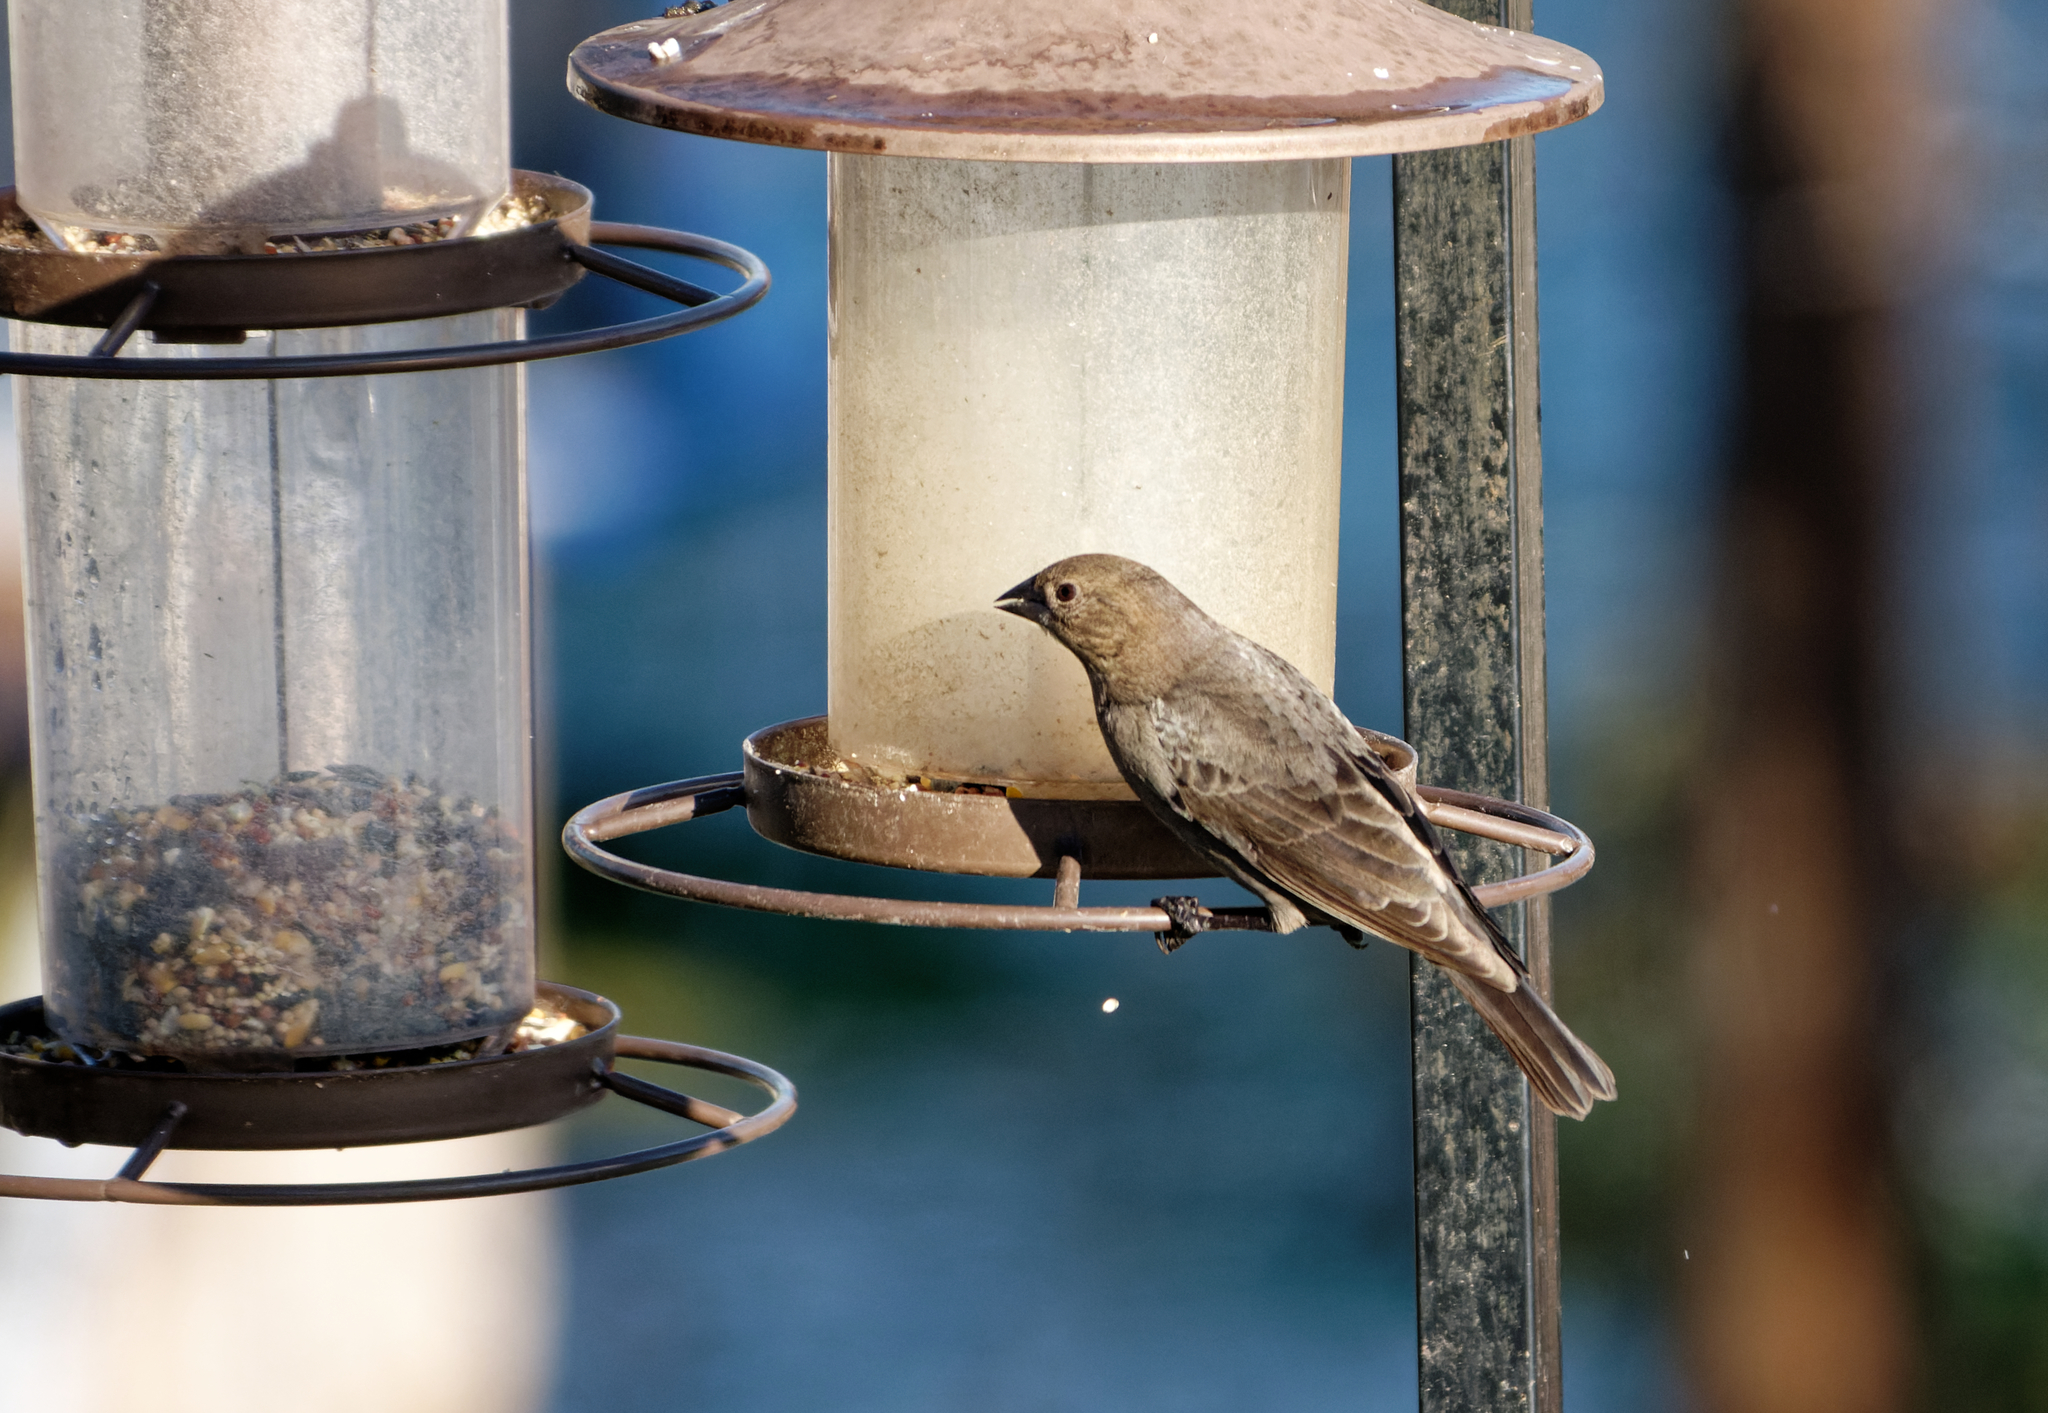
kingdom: Animalia
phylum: Chordata
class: Aves
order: Passeriformes
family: Icteridae
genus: Molothrus
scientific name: Molothrus ater
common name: Brown-headed cowbird
